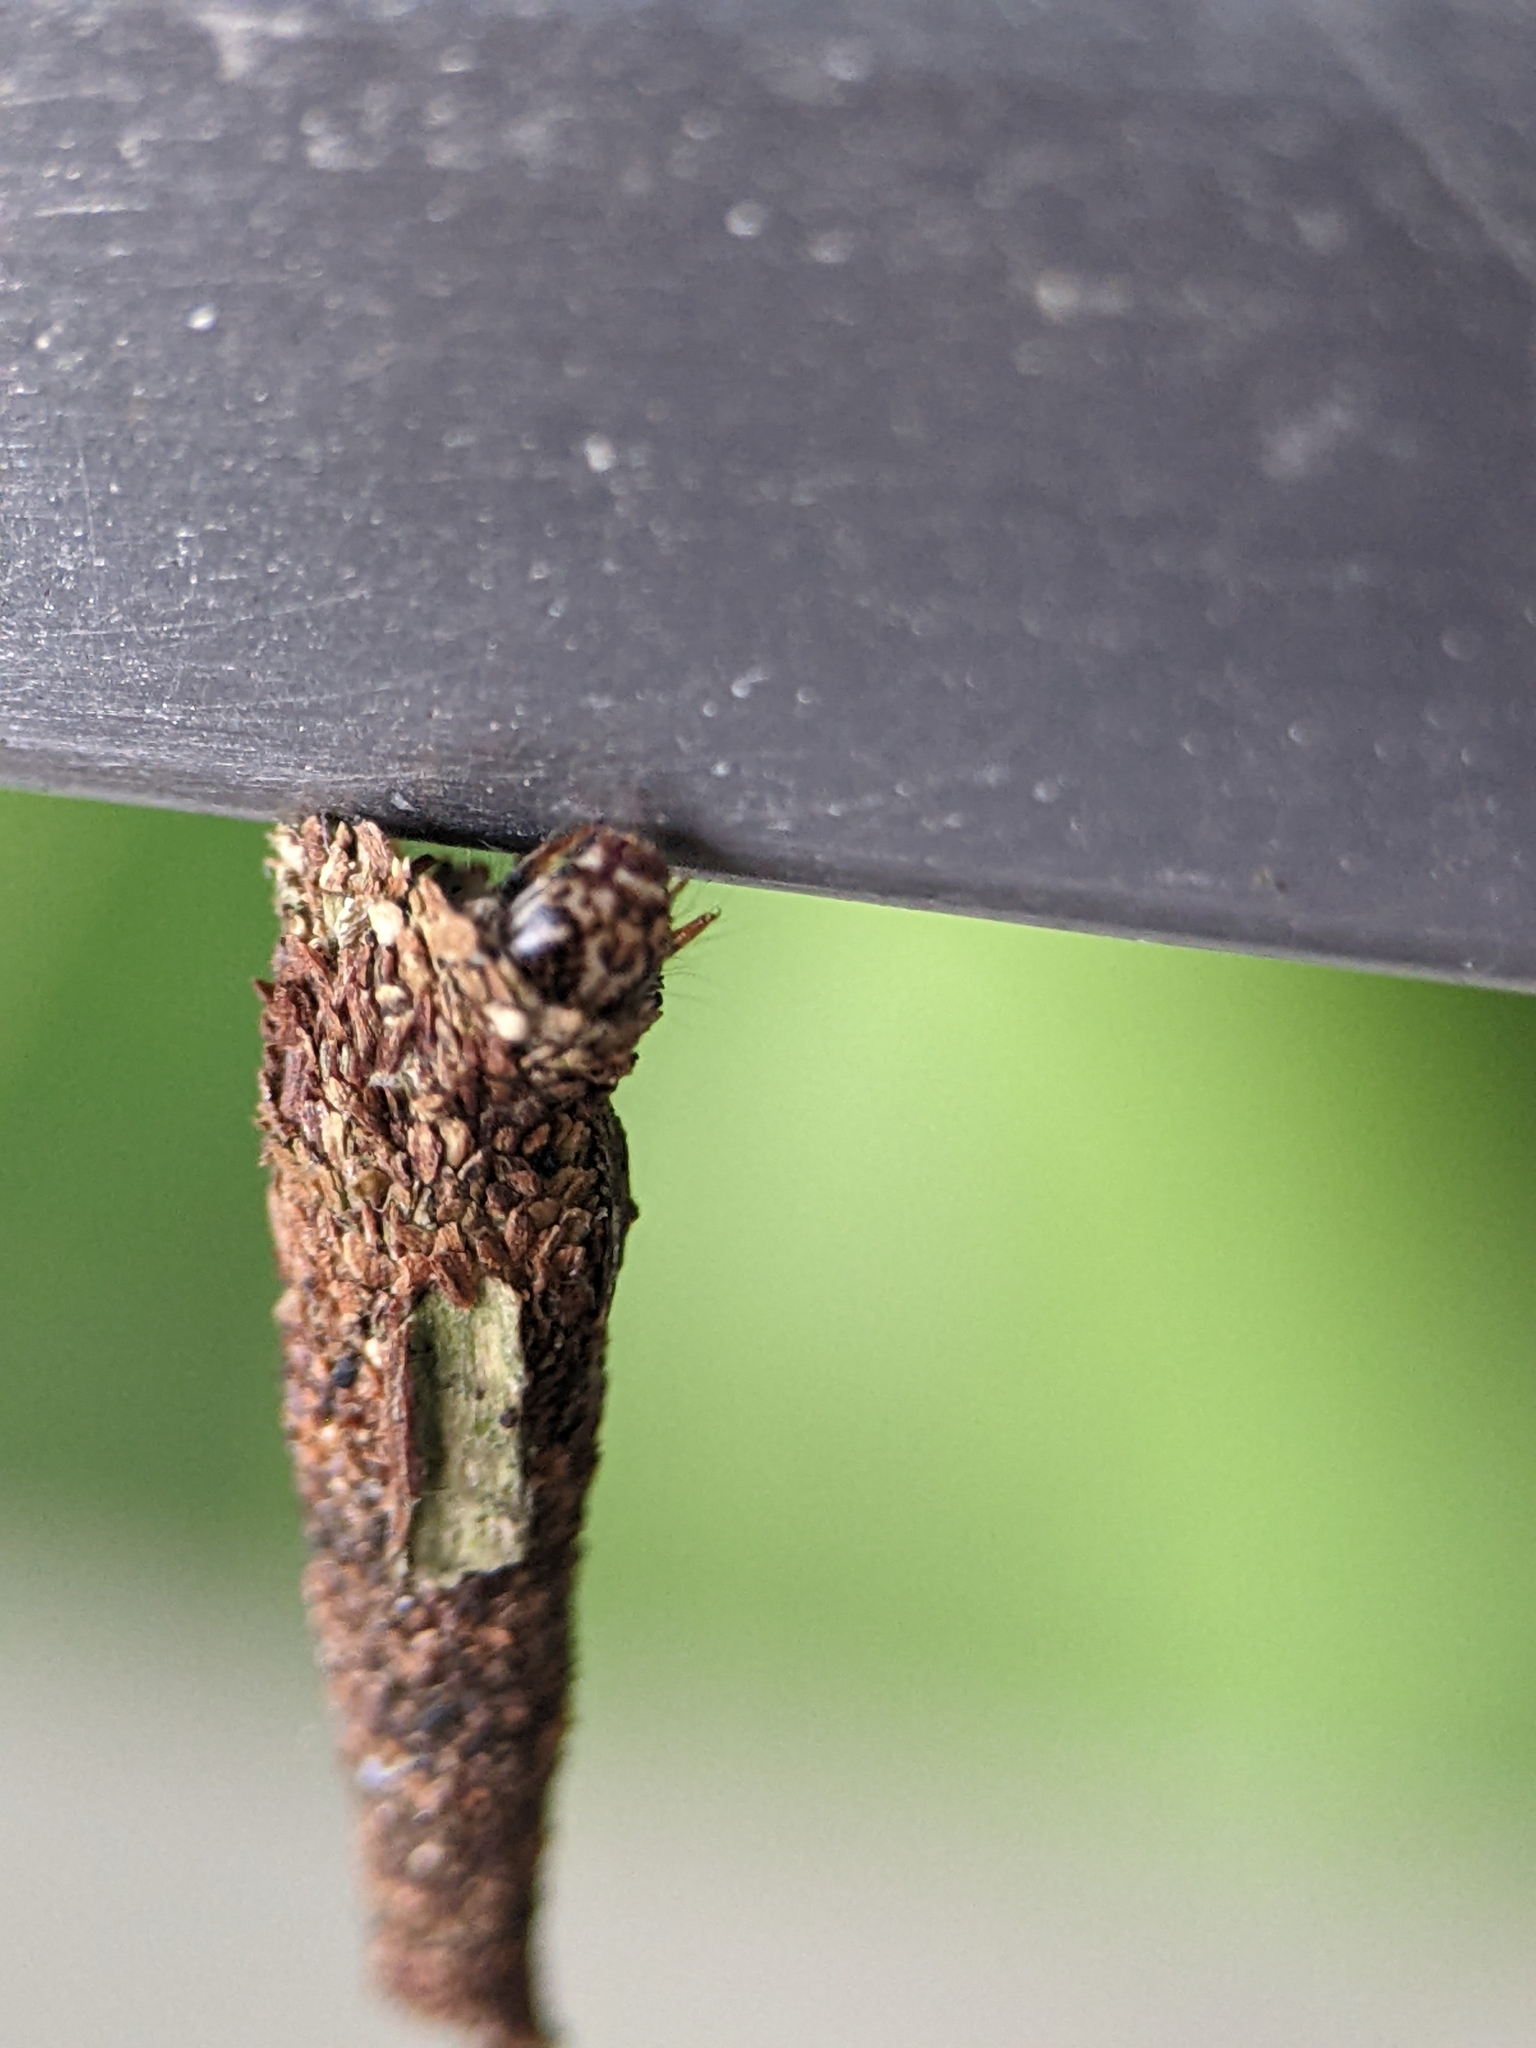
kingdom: Animalia
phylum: Arthropoda
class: Insecta
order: Lepidoptera
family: Psychidae
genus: Eumeta
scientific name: Eumeta variegatus
